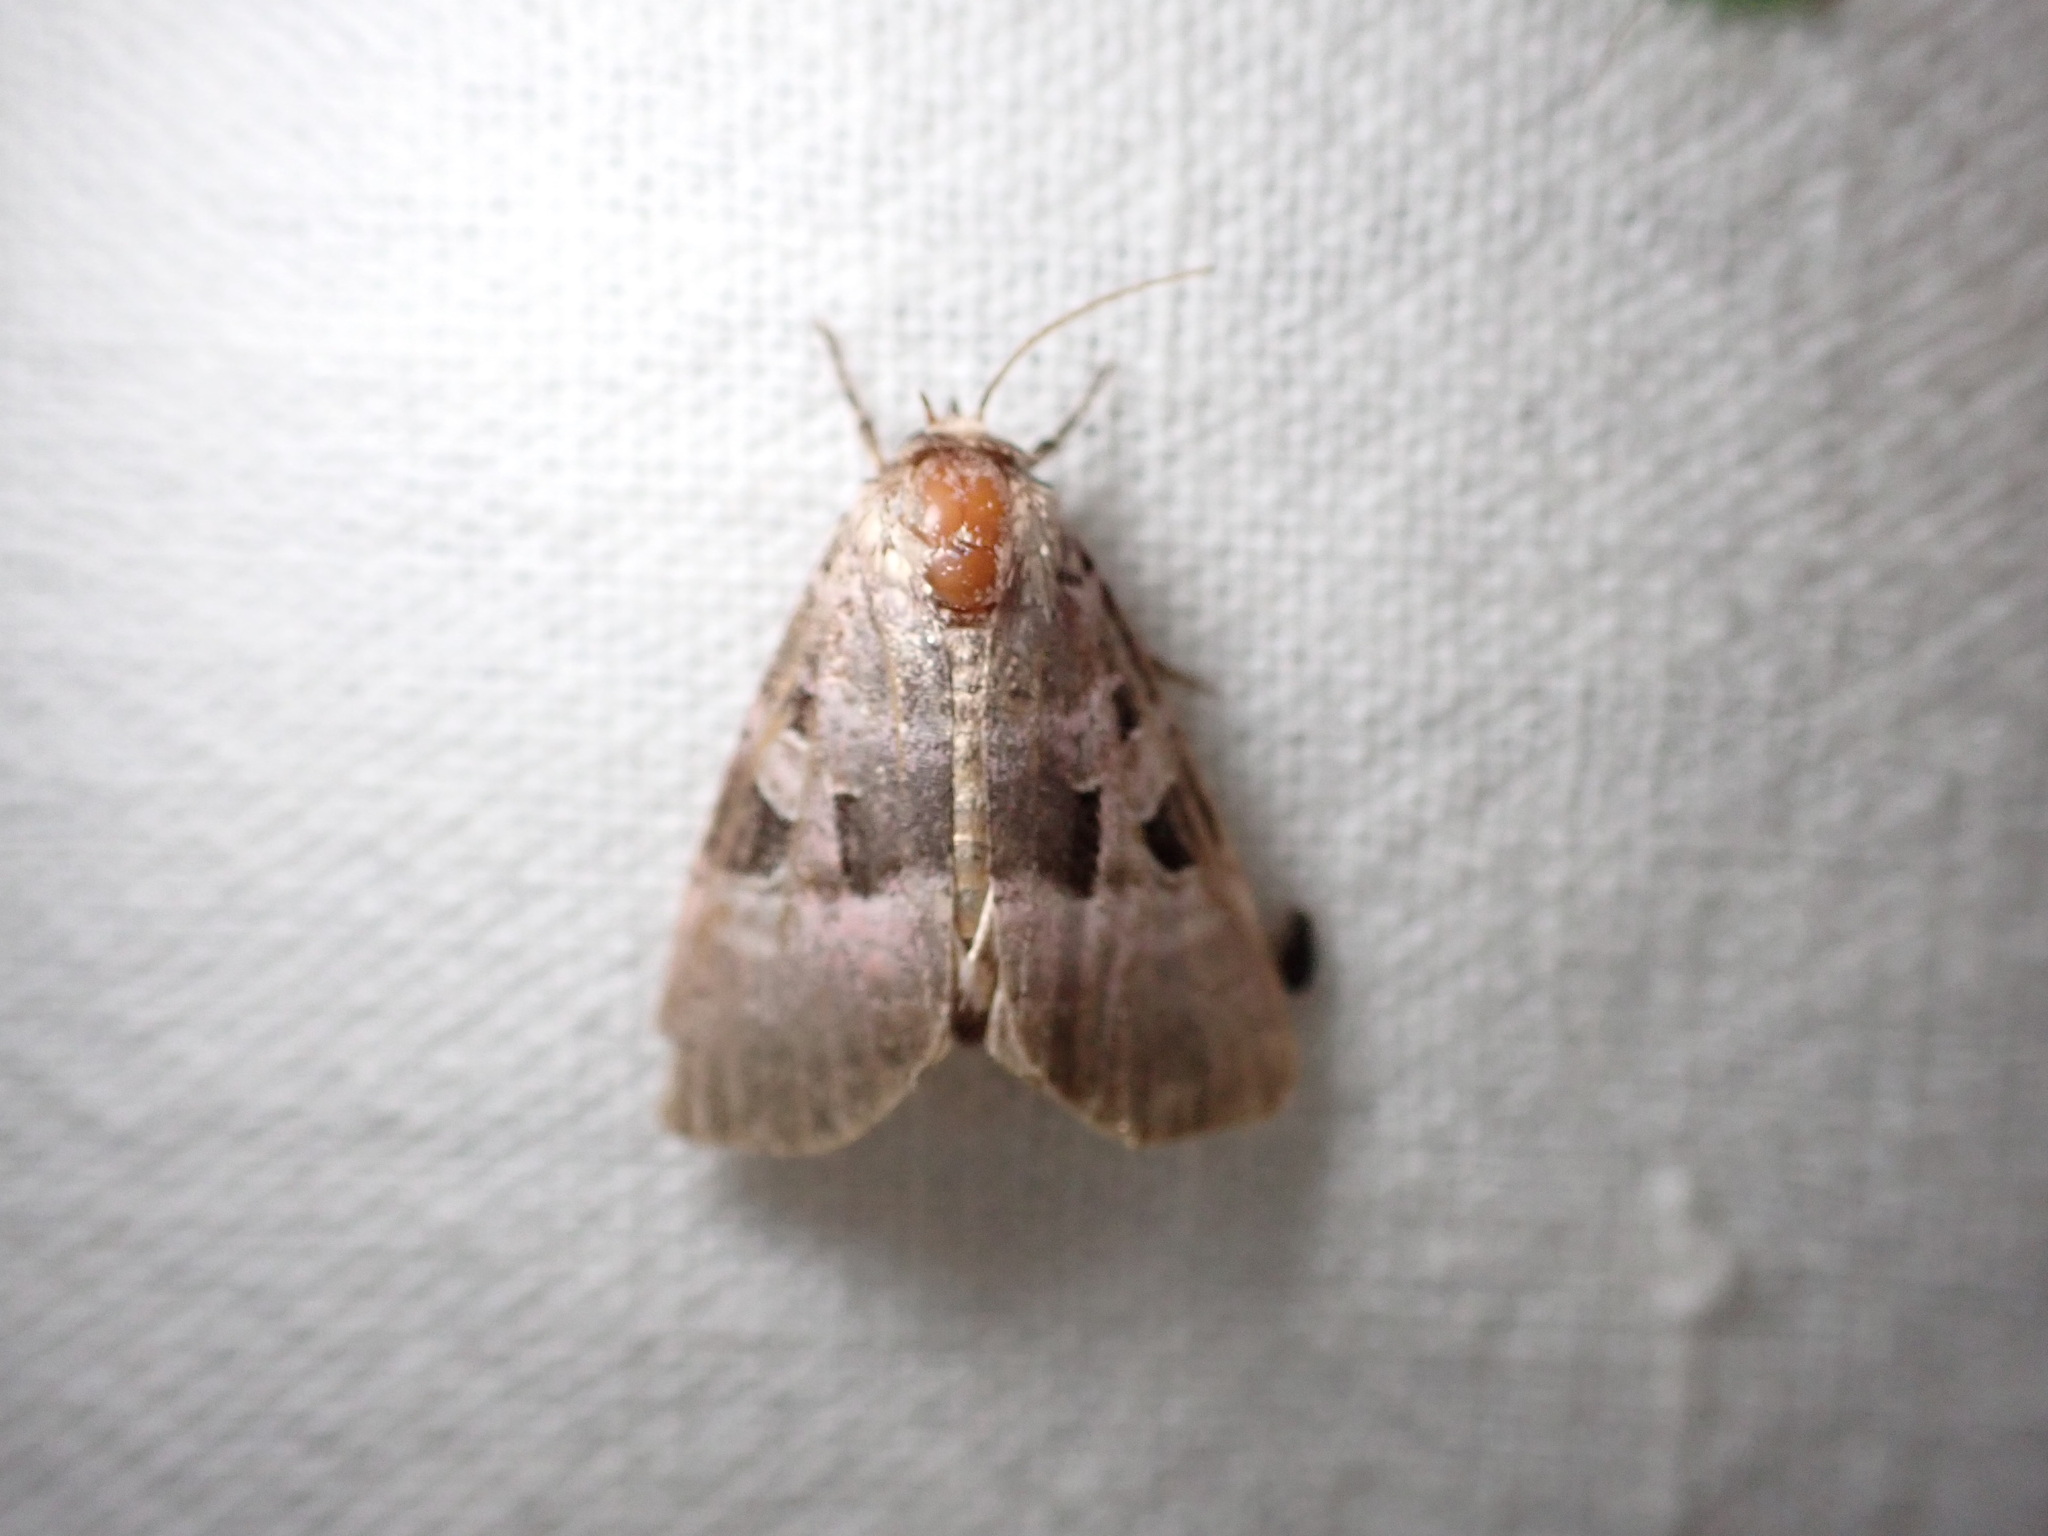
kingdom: Animalia
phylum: Arthropoda
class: Insecta
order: Lepidoptera
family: Noctuidae
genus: Eucarta
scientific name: Eucarta amethystina
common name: Cumberland green
